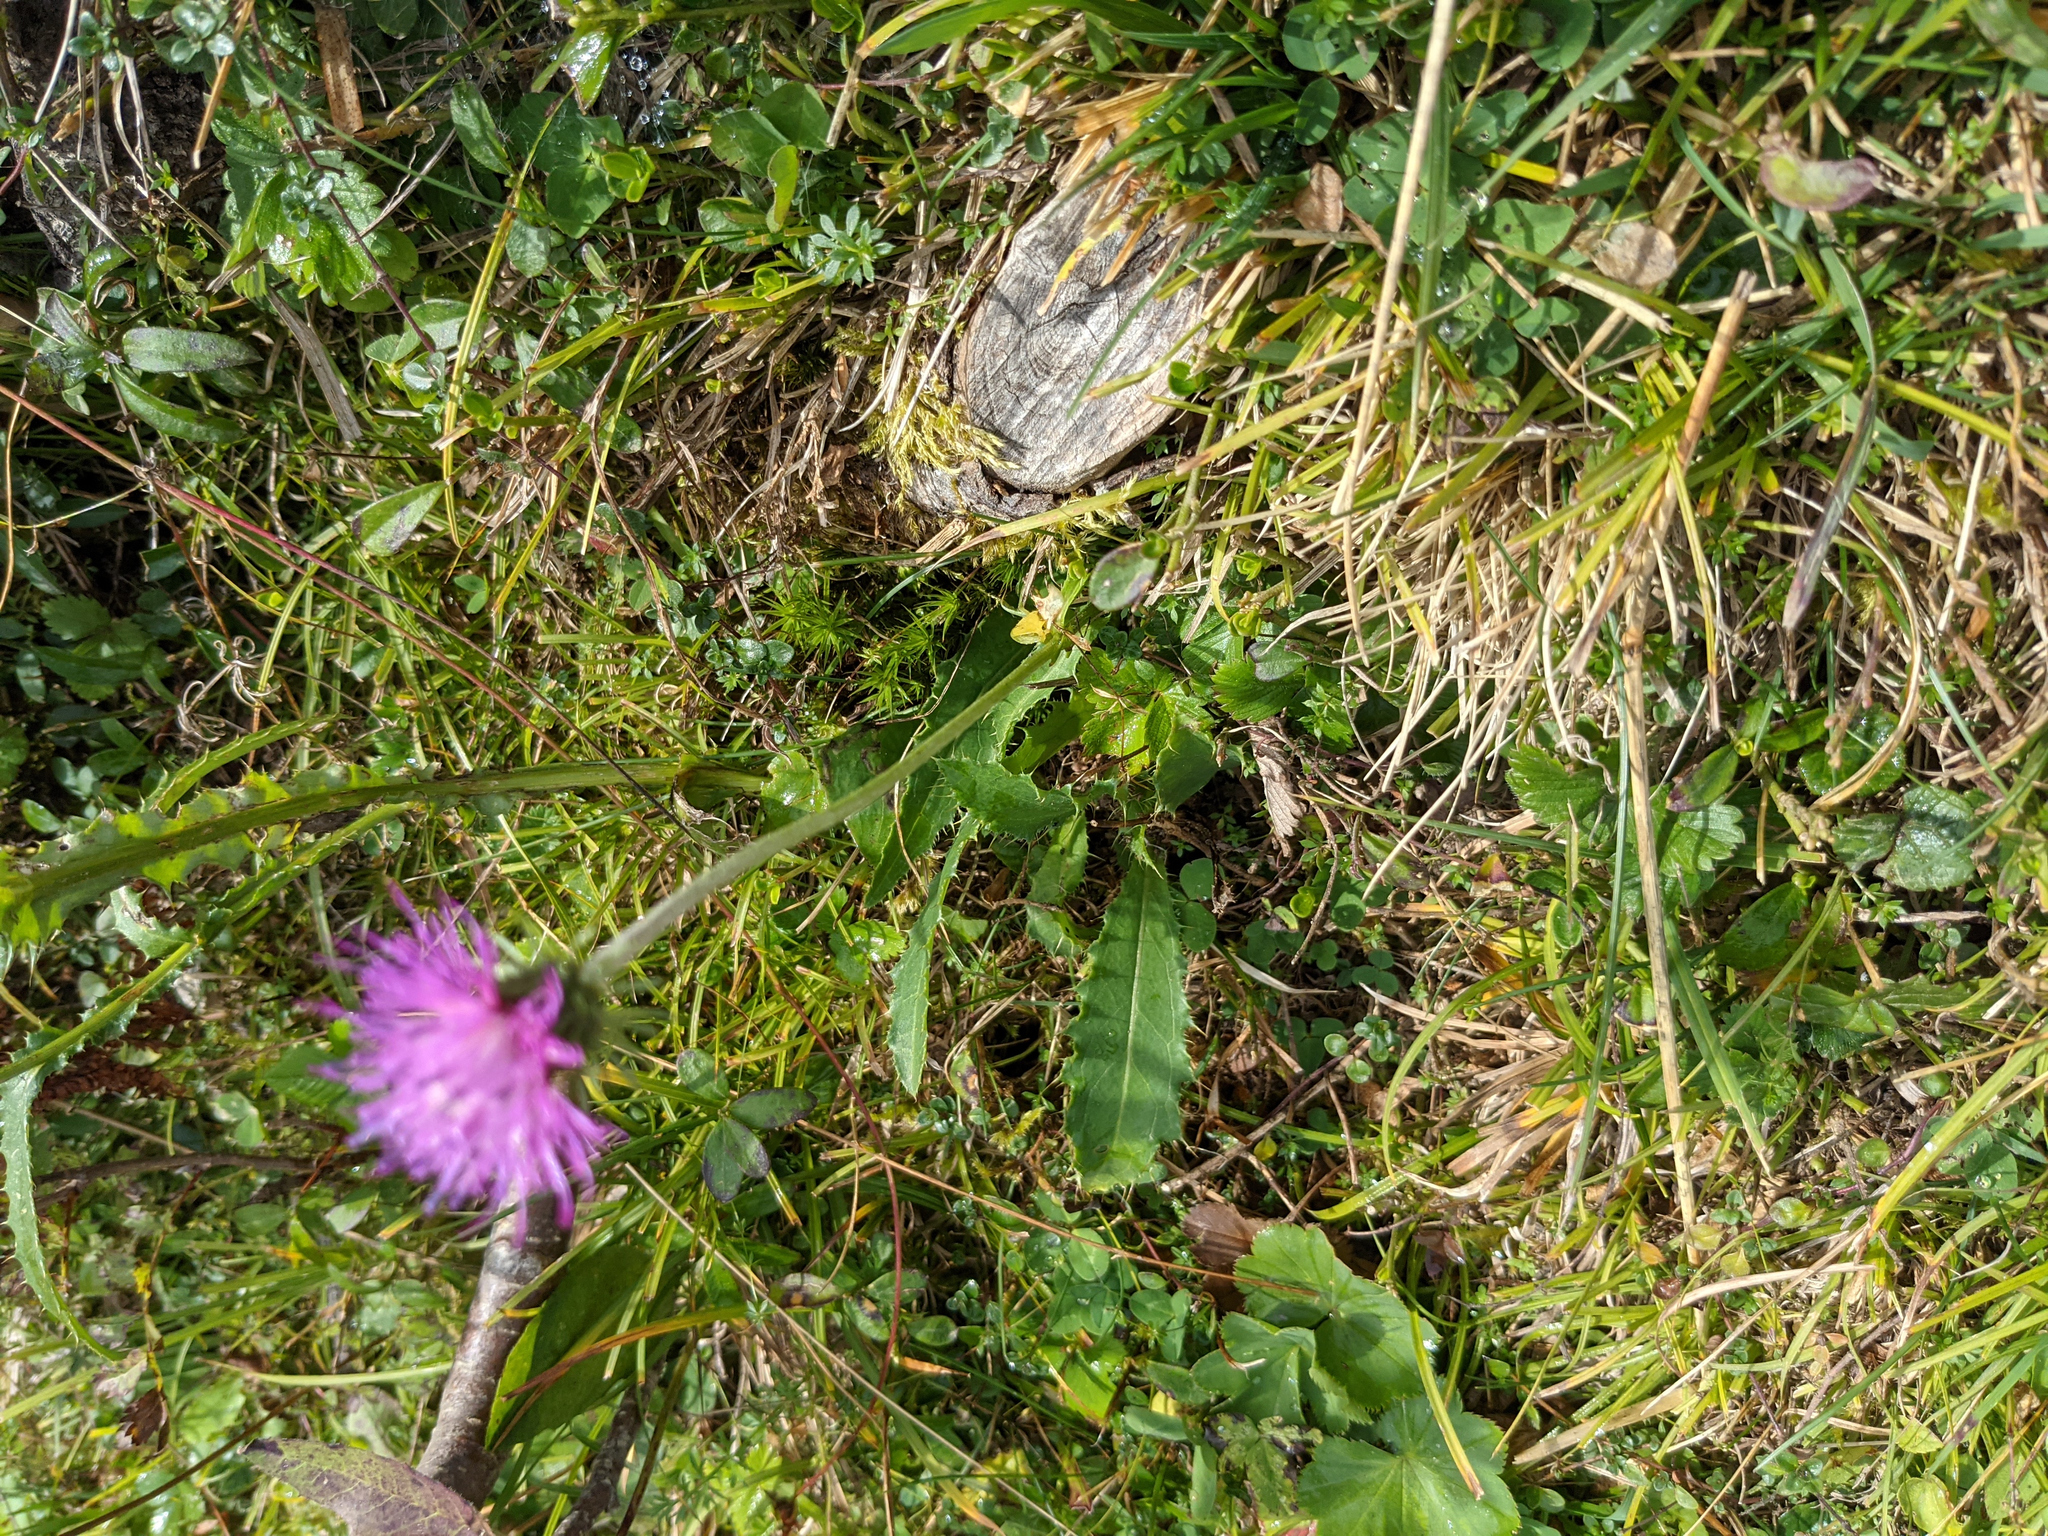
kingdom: Plantae
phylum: Tracheophyta
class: Magnoliopsida
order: Asterales
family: Asteraceae
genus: Carduus
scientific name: Carduus defloratus
